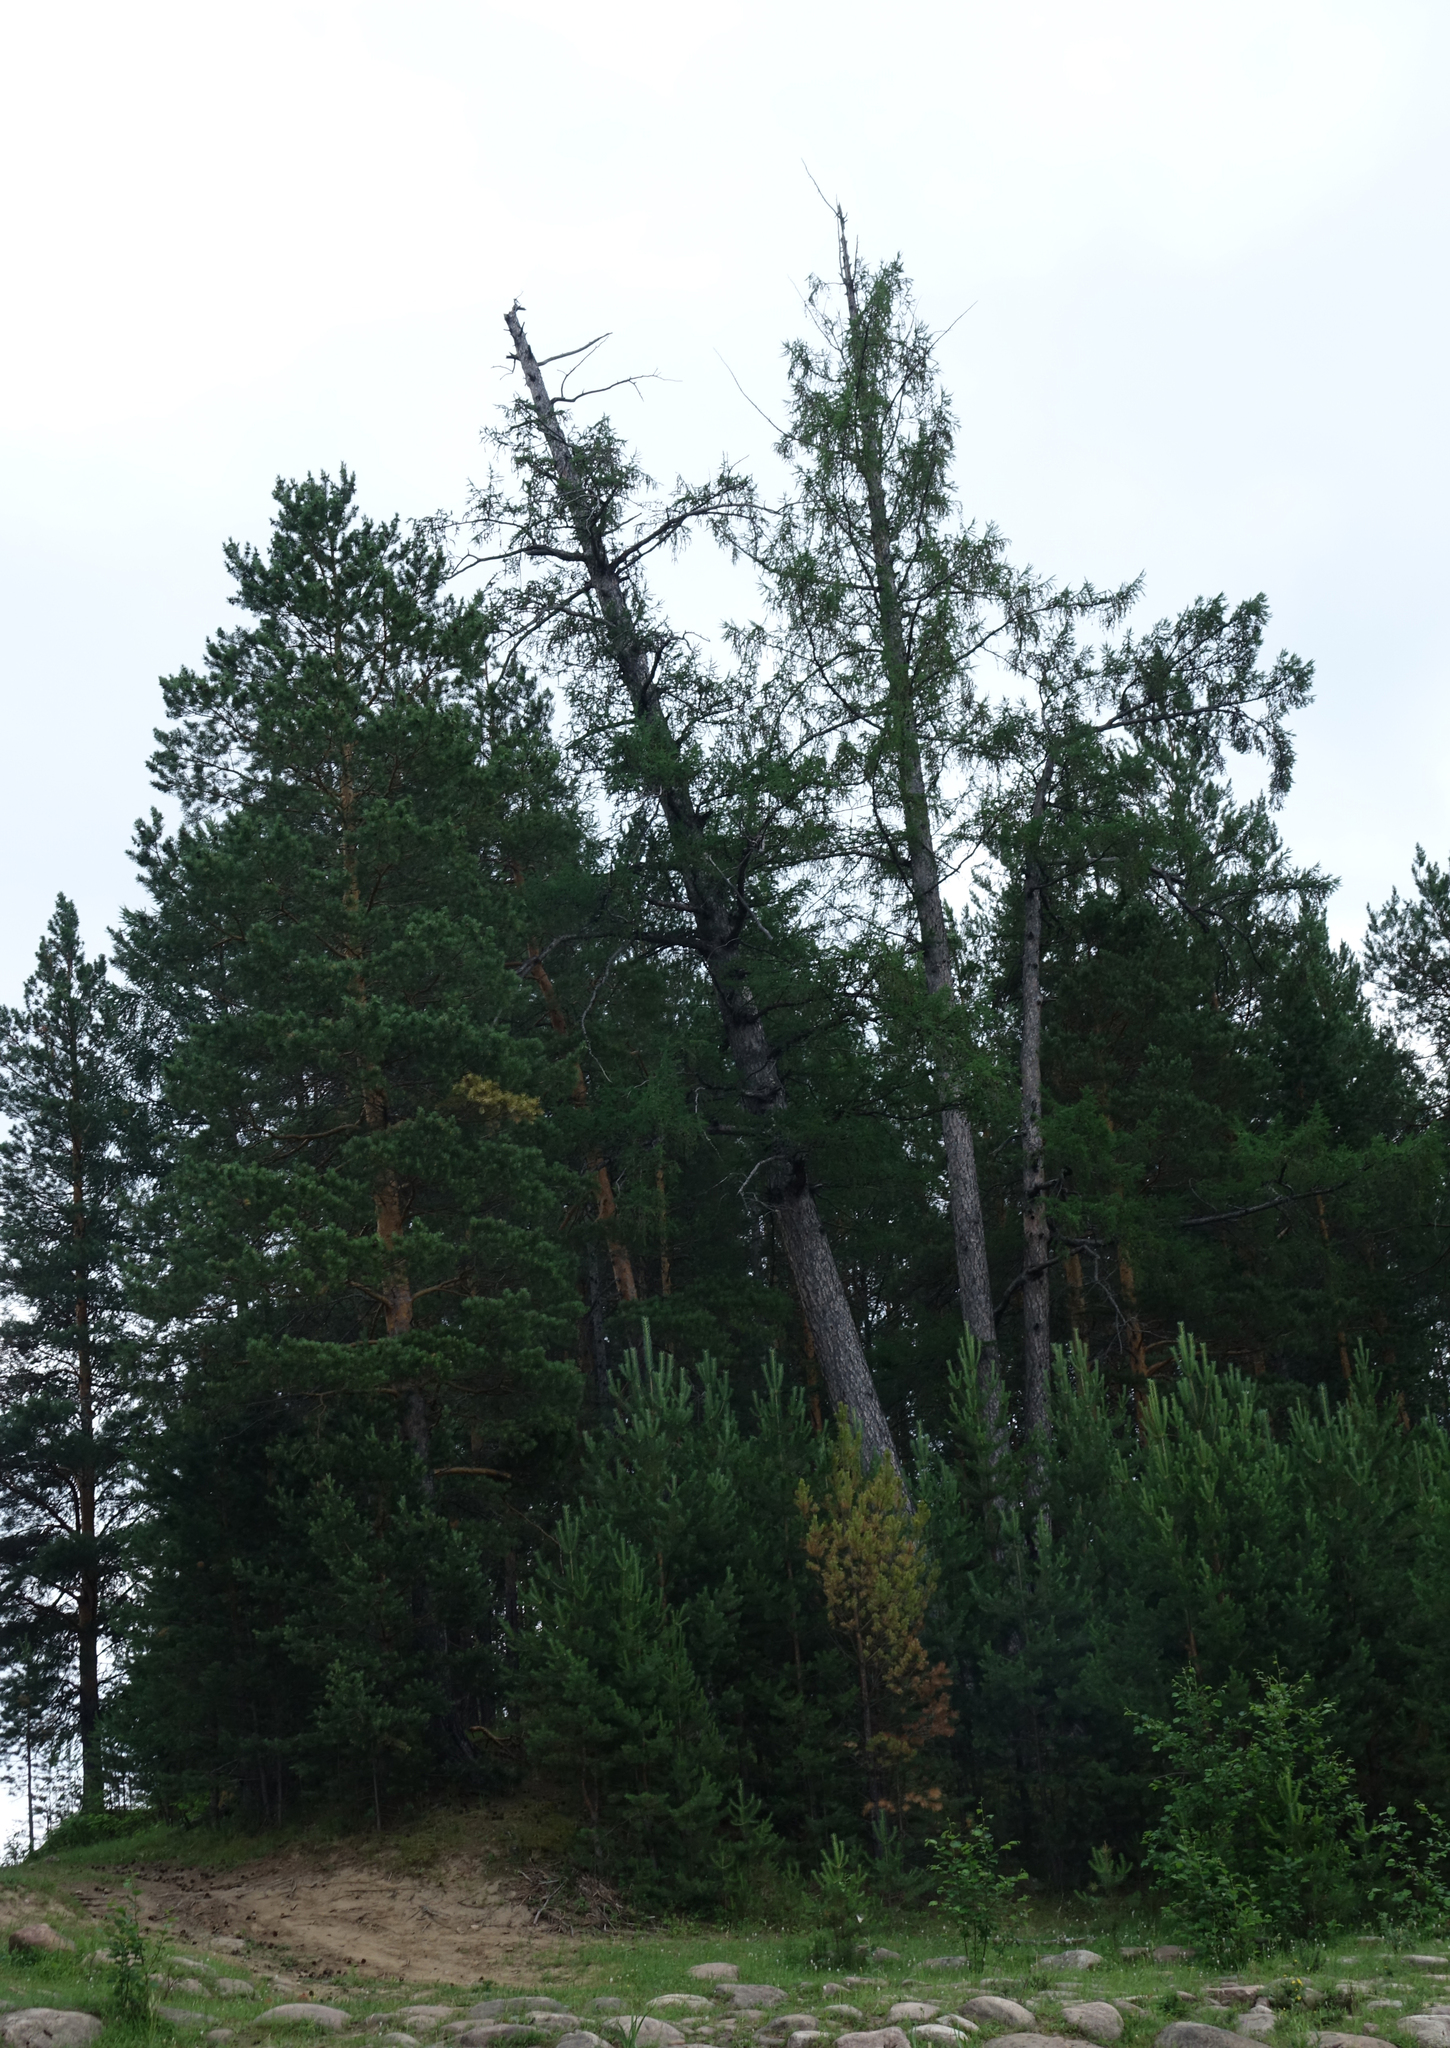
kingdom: Plantae
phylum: Tracheophyta
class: Pinopsida
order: Pinales
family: Pinaceae
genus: Pinus
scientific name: Pinus sylvestris
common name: Scots pine
